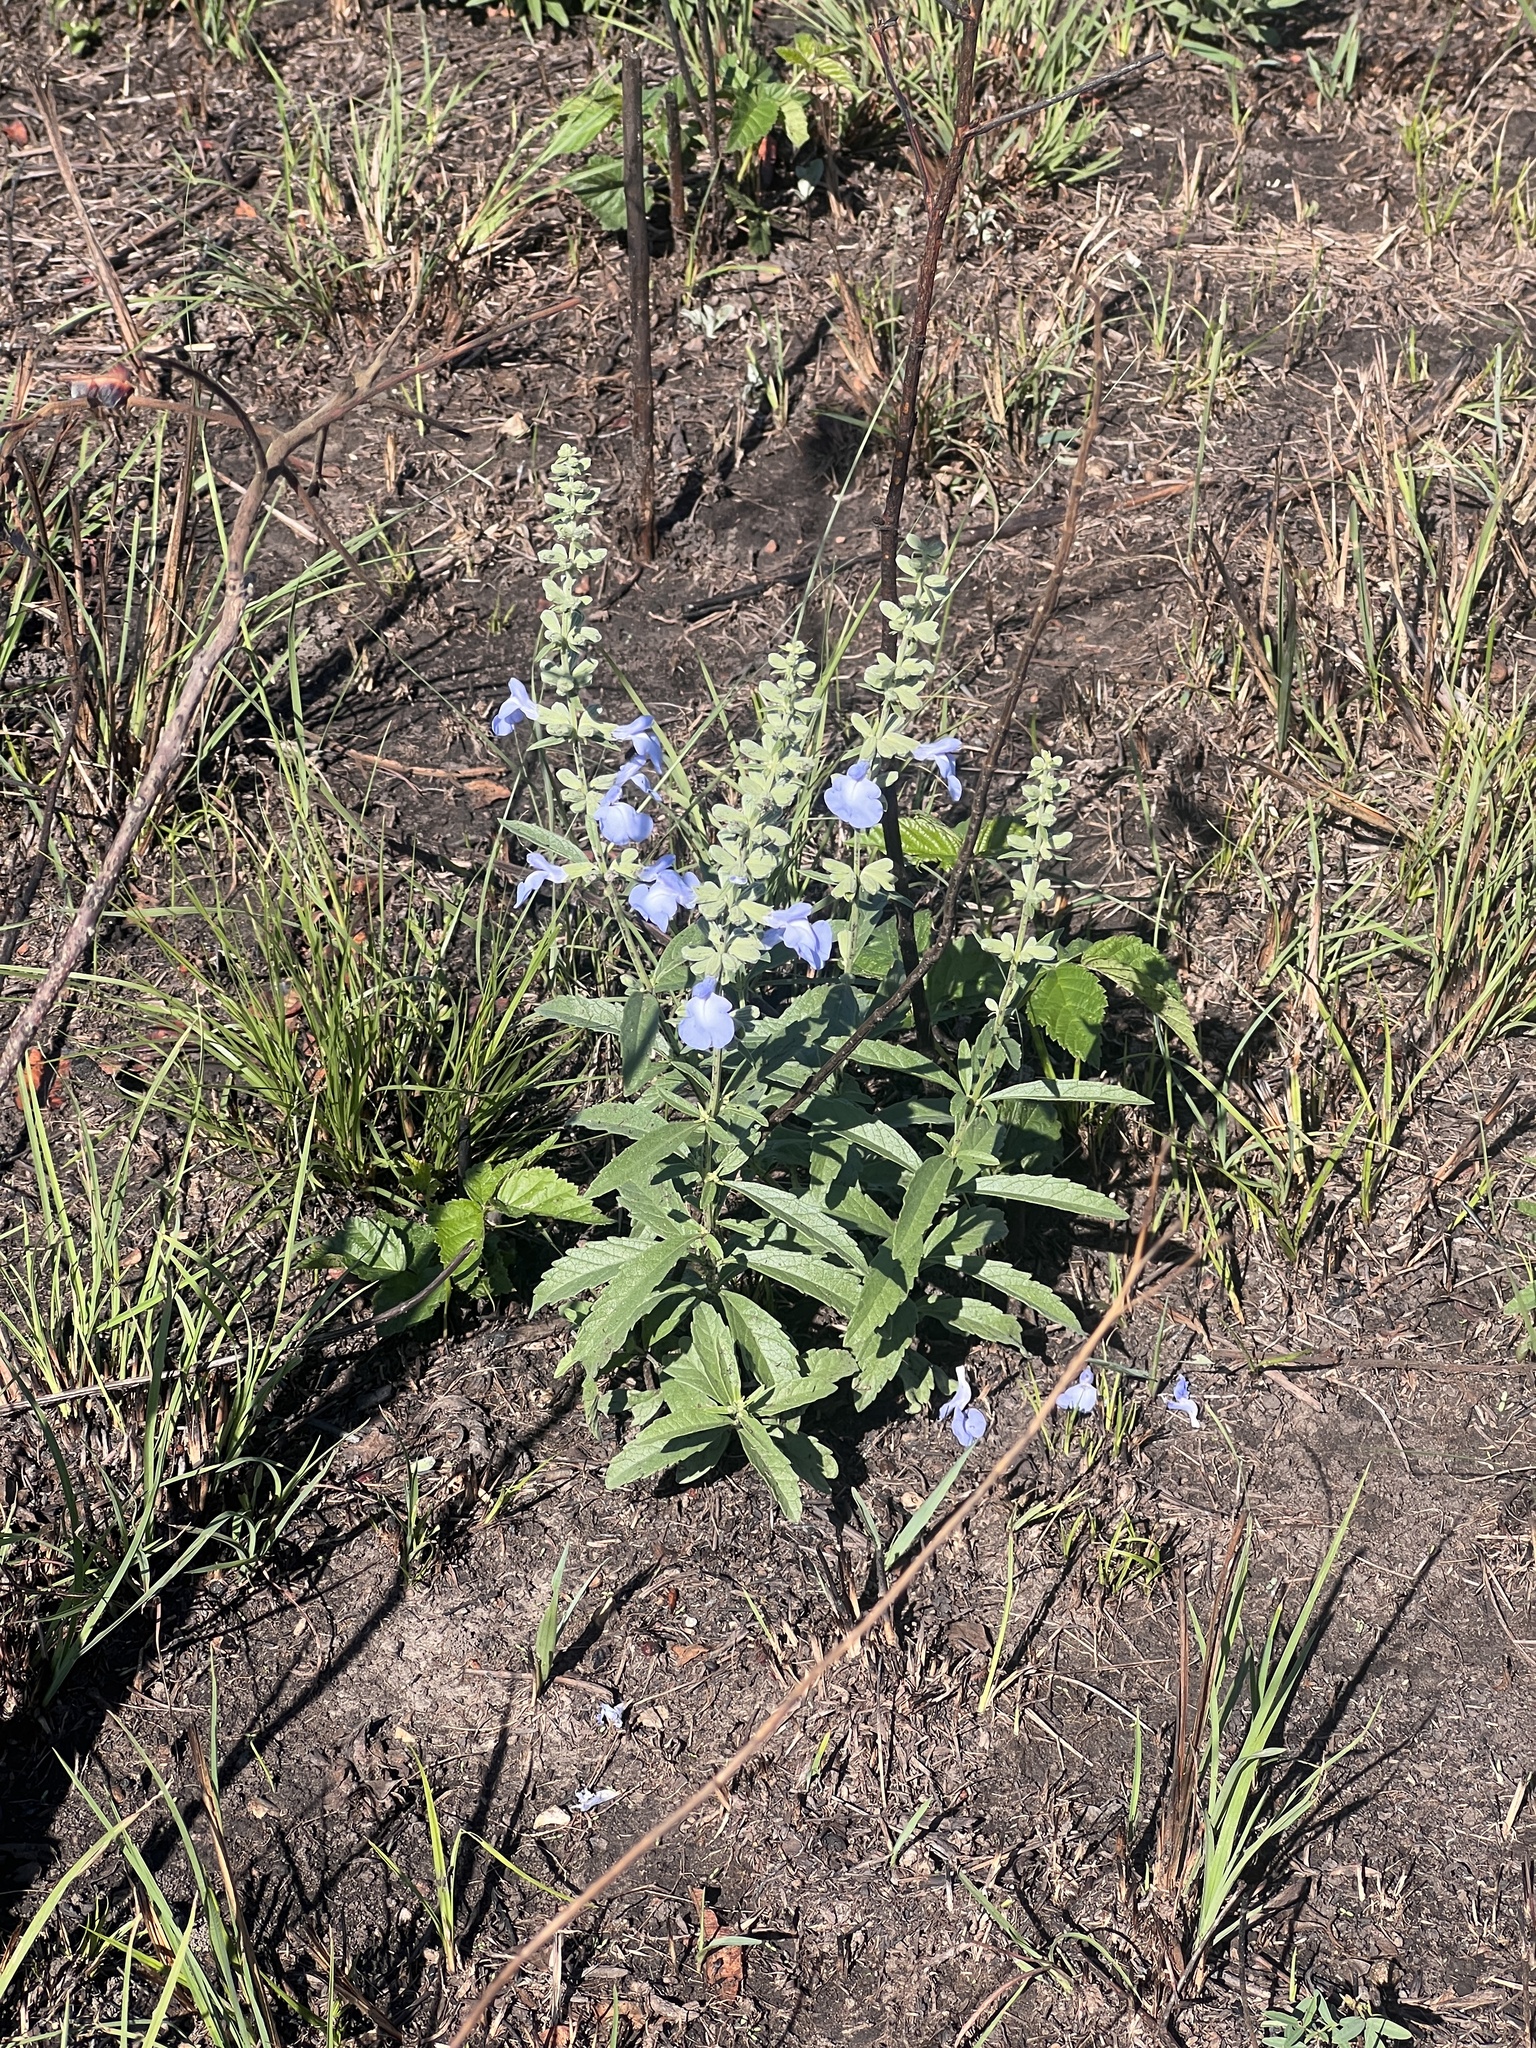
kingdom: Plantae
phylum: Tracheophyta
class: Magnoliopsida
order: Lamiales
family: Lamiaceae
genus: Salvia
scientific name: Salvia azurea
